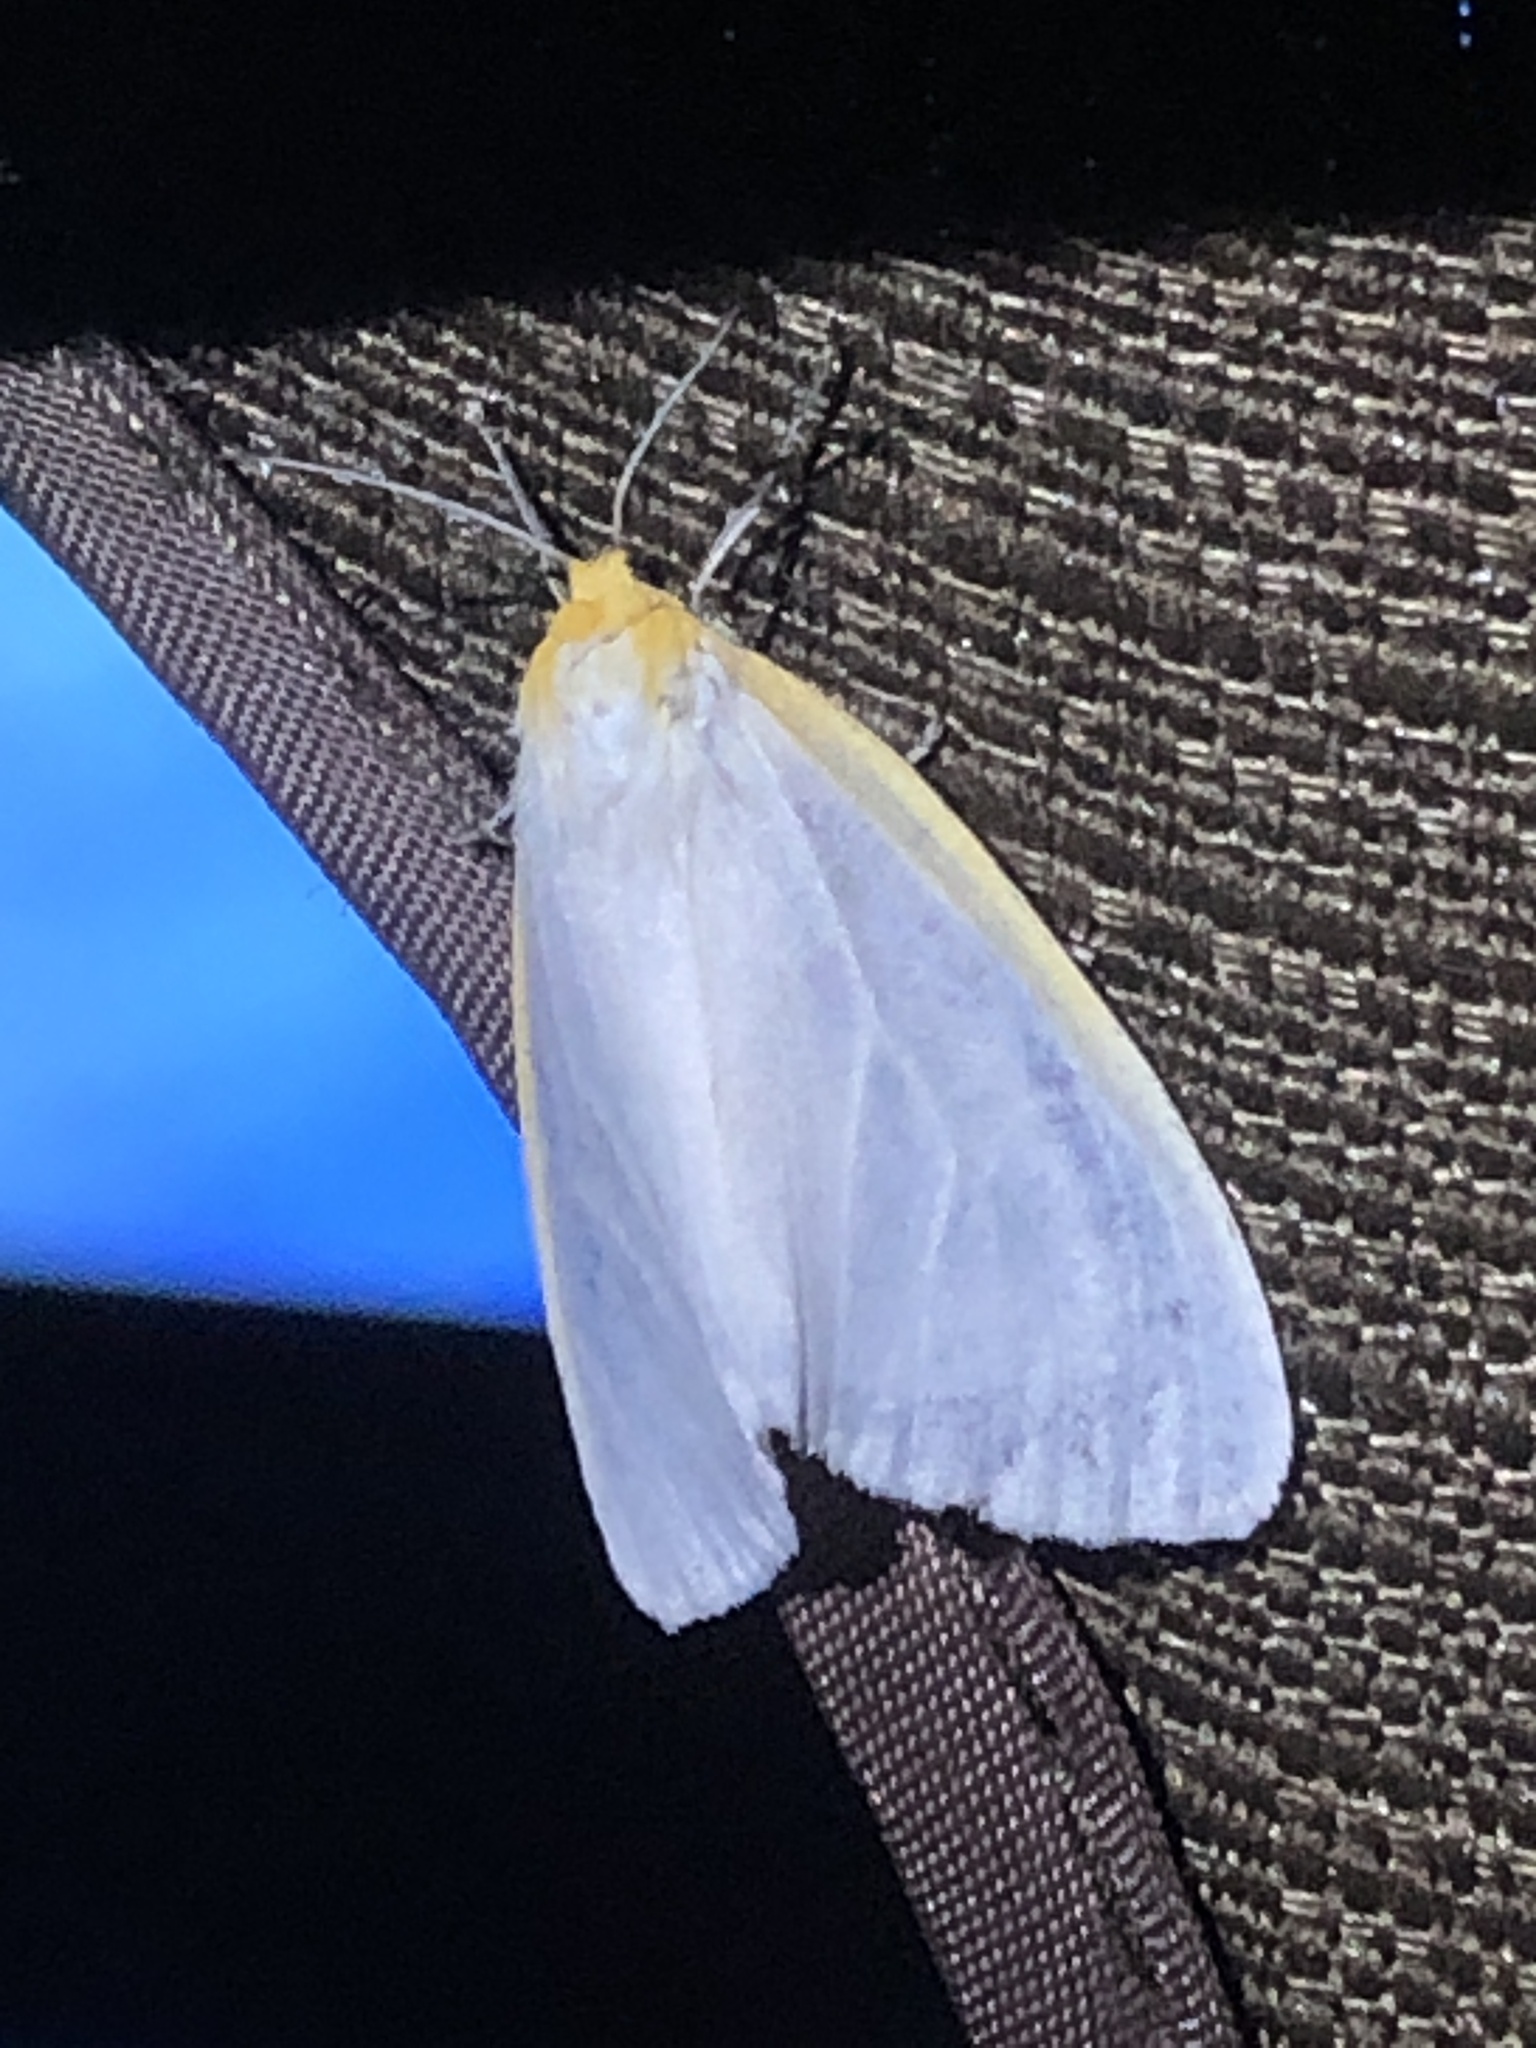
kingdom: Animalia
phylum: Arthropoda
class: Insecta
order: Lepidoptera
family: Erebidae
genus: Cycnia
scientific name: Cycnia tenera
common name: Delicate cycnia moth
